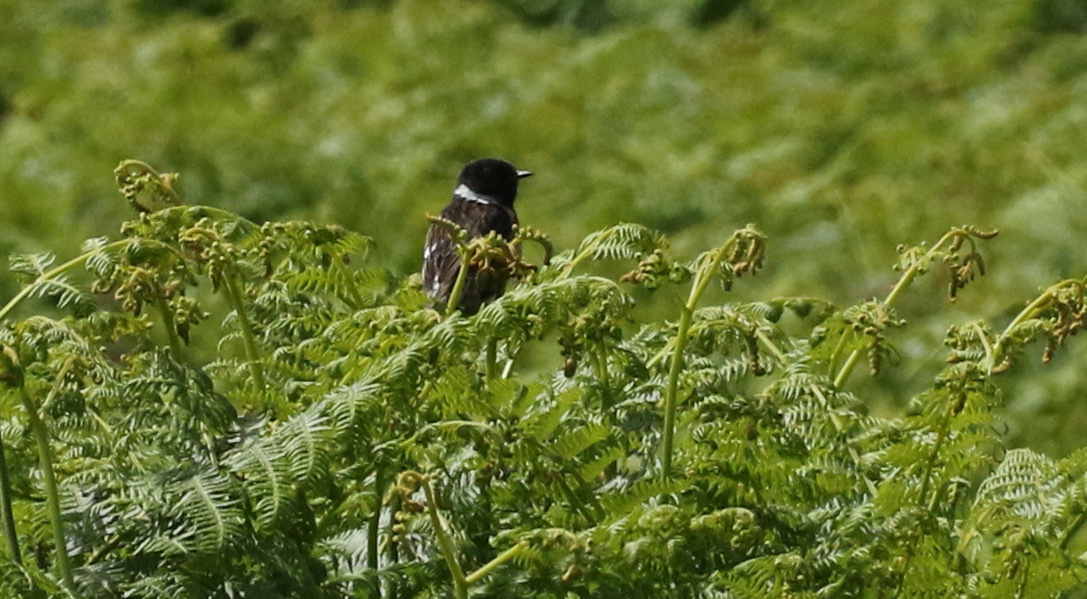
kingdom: Animalia
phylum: Chordata
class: Aves
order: Passeriformes
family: Muscicapidae
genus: Saxicola
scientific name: Saxicola rubicola
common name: European stonechat
